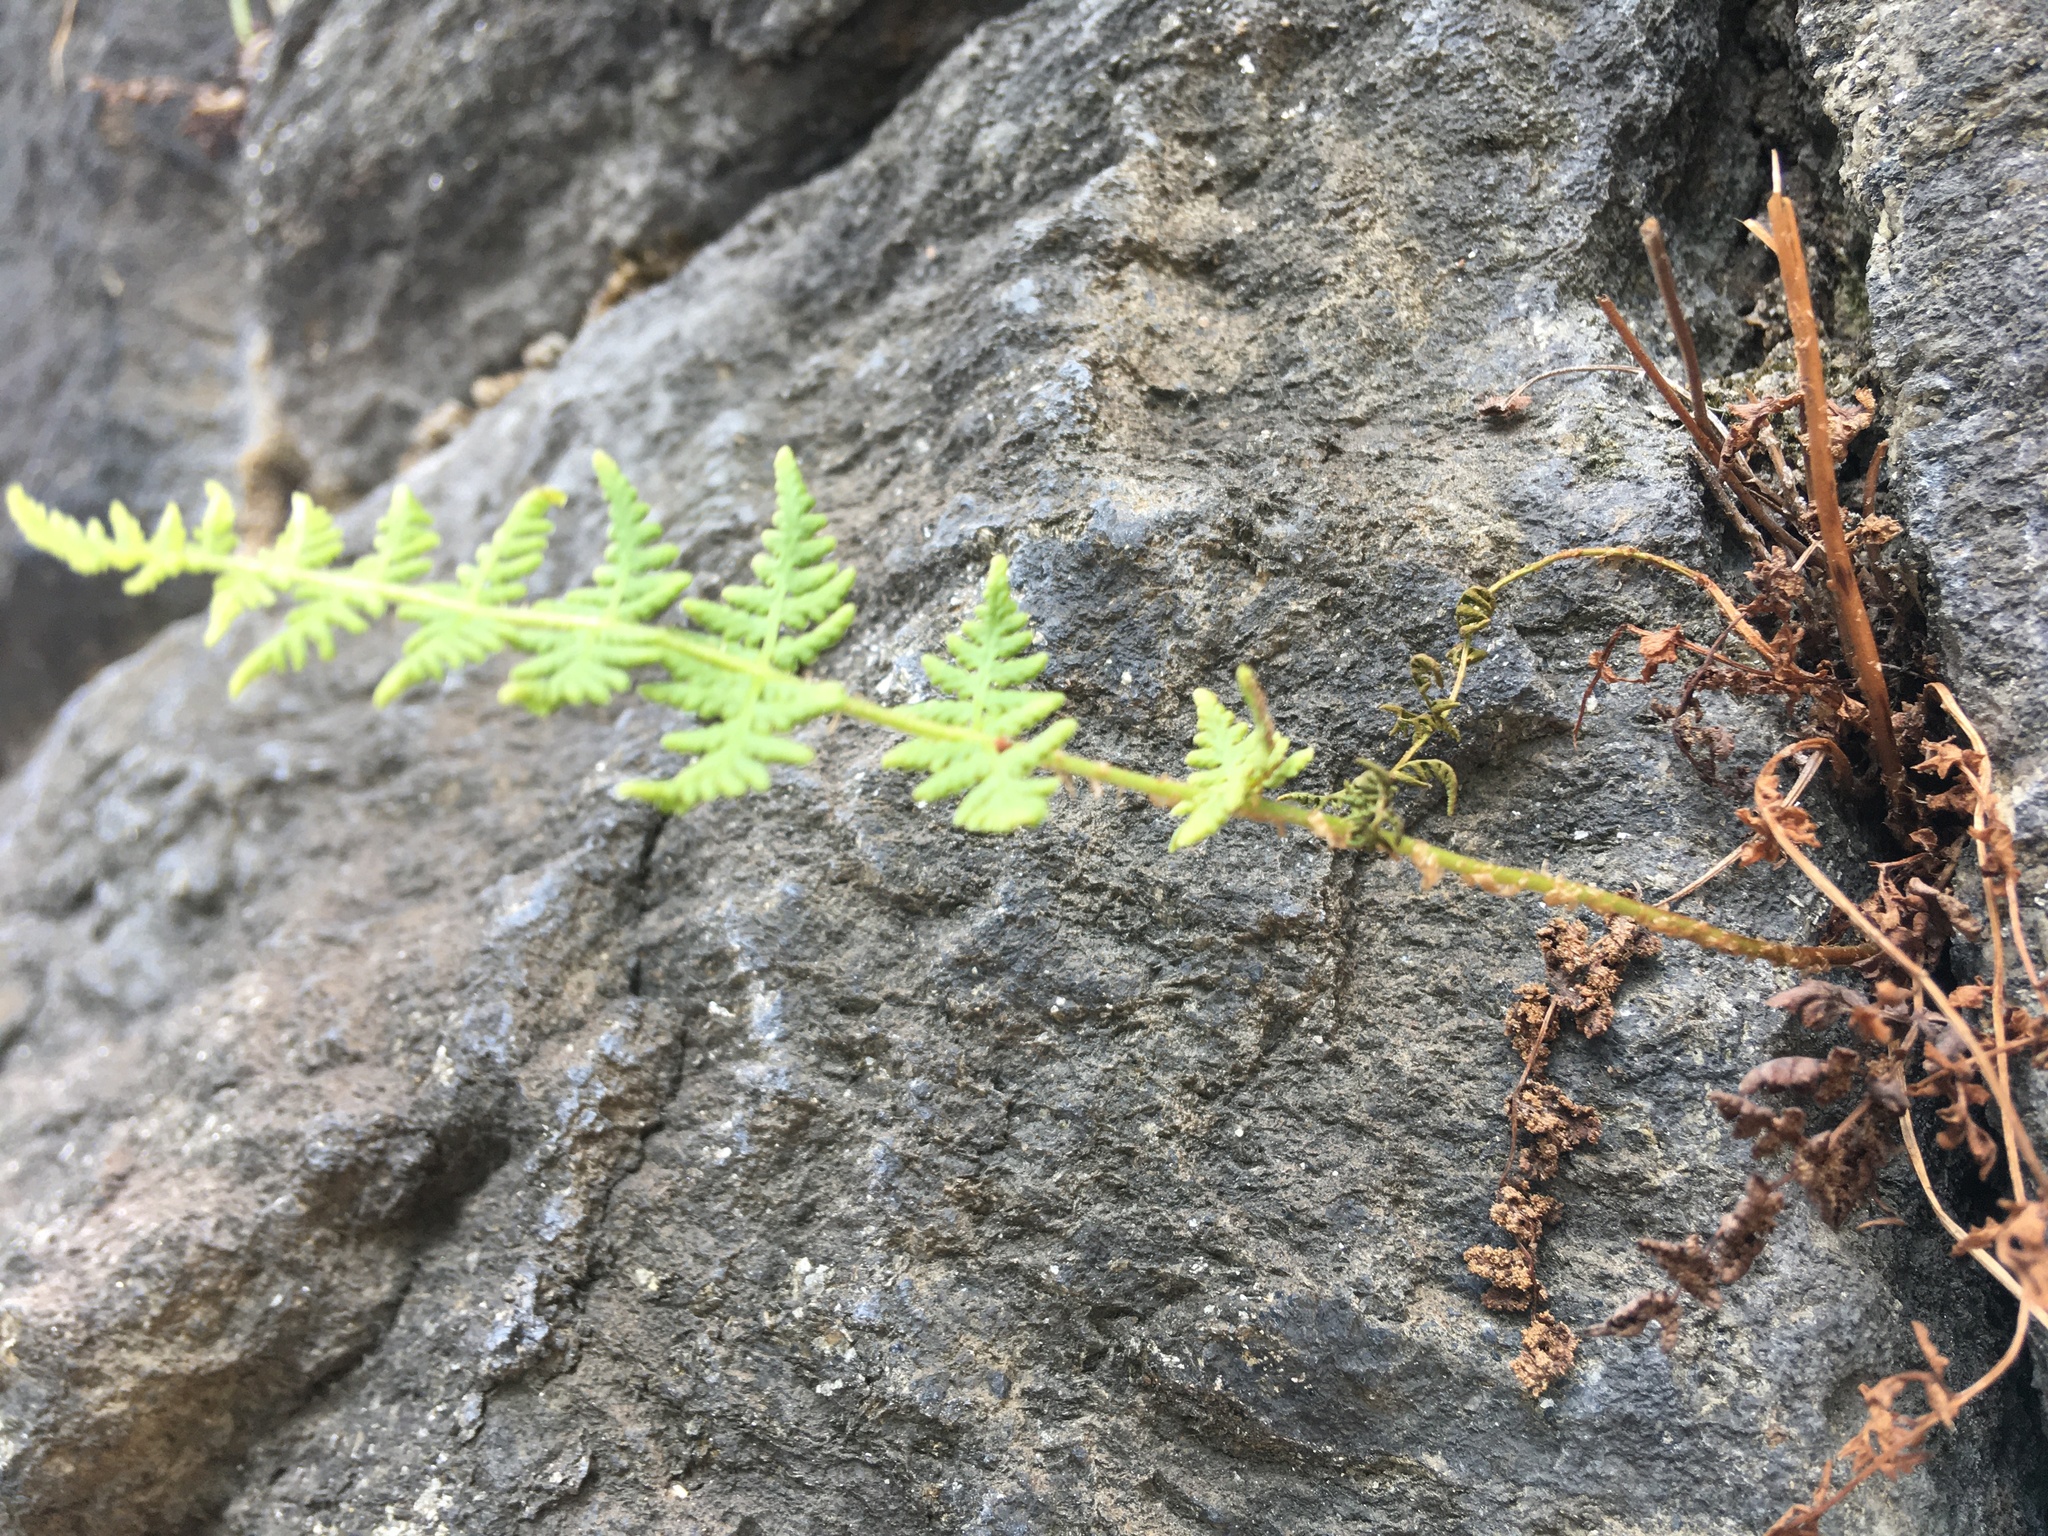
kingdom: Plantae
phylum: Tracheophyta
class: Polypodiopsida
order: Polypodiales
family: Woodsiaceae
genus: Physematium
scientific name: Physematium obtusum
